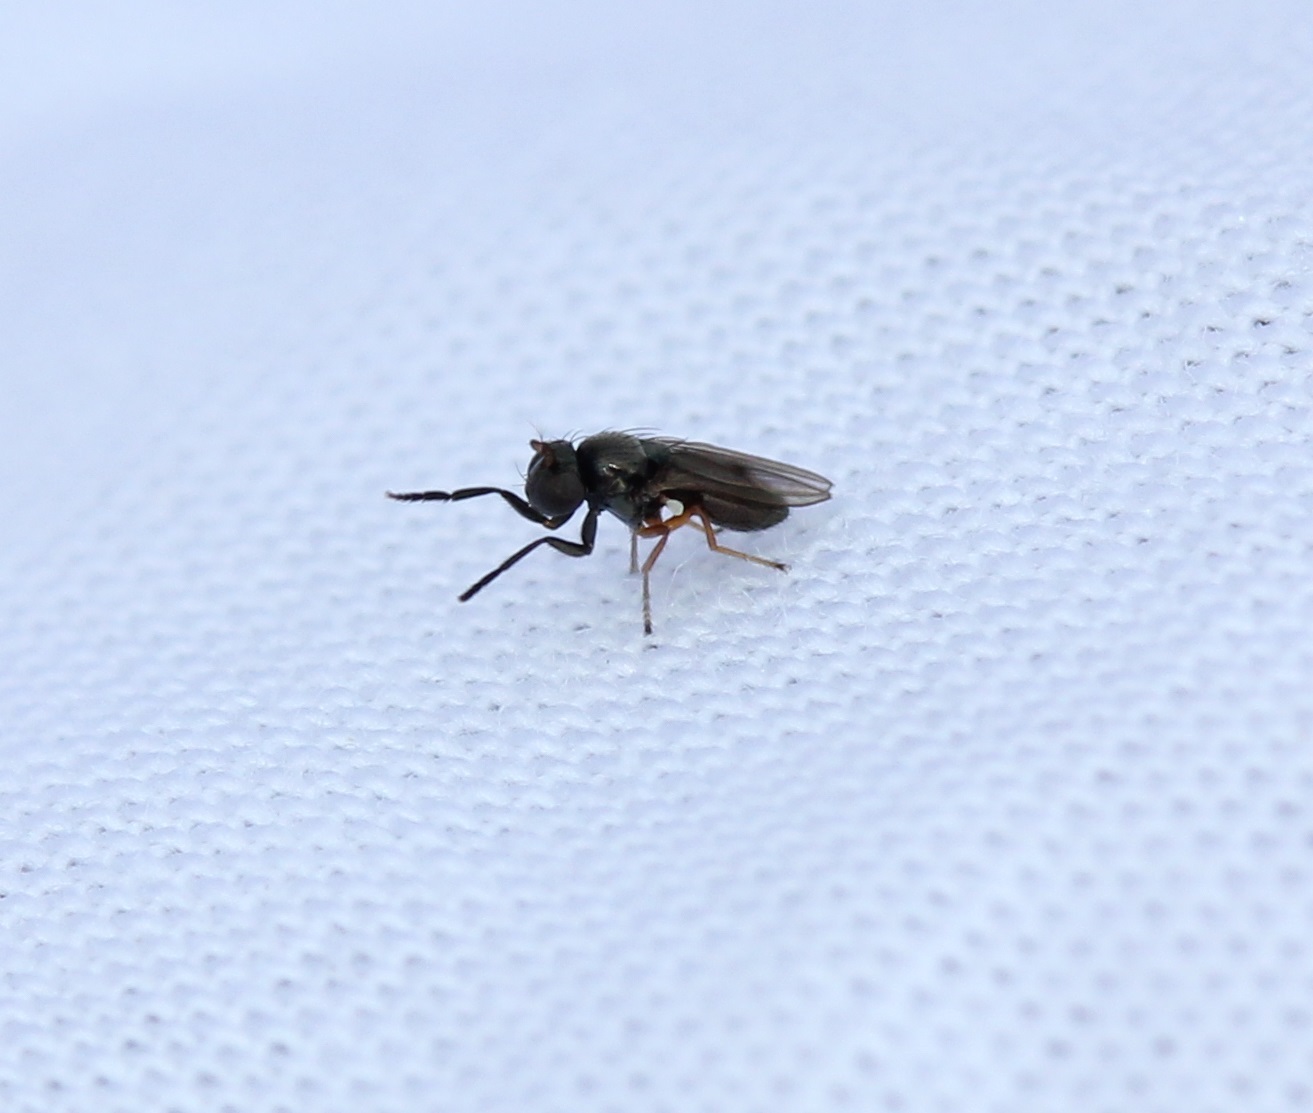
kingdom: Animalia
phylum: Arthropoda
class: Insecta
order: Diptera
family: Ephydridae
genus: Leptopsilopa
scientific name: Leptopsilopa atrimanus
